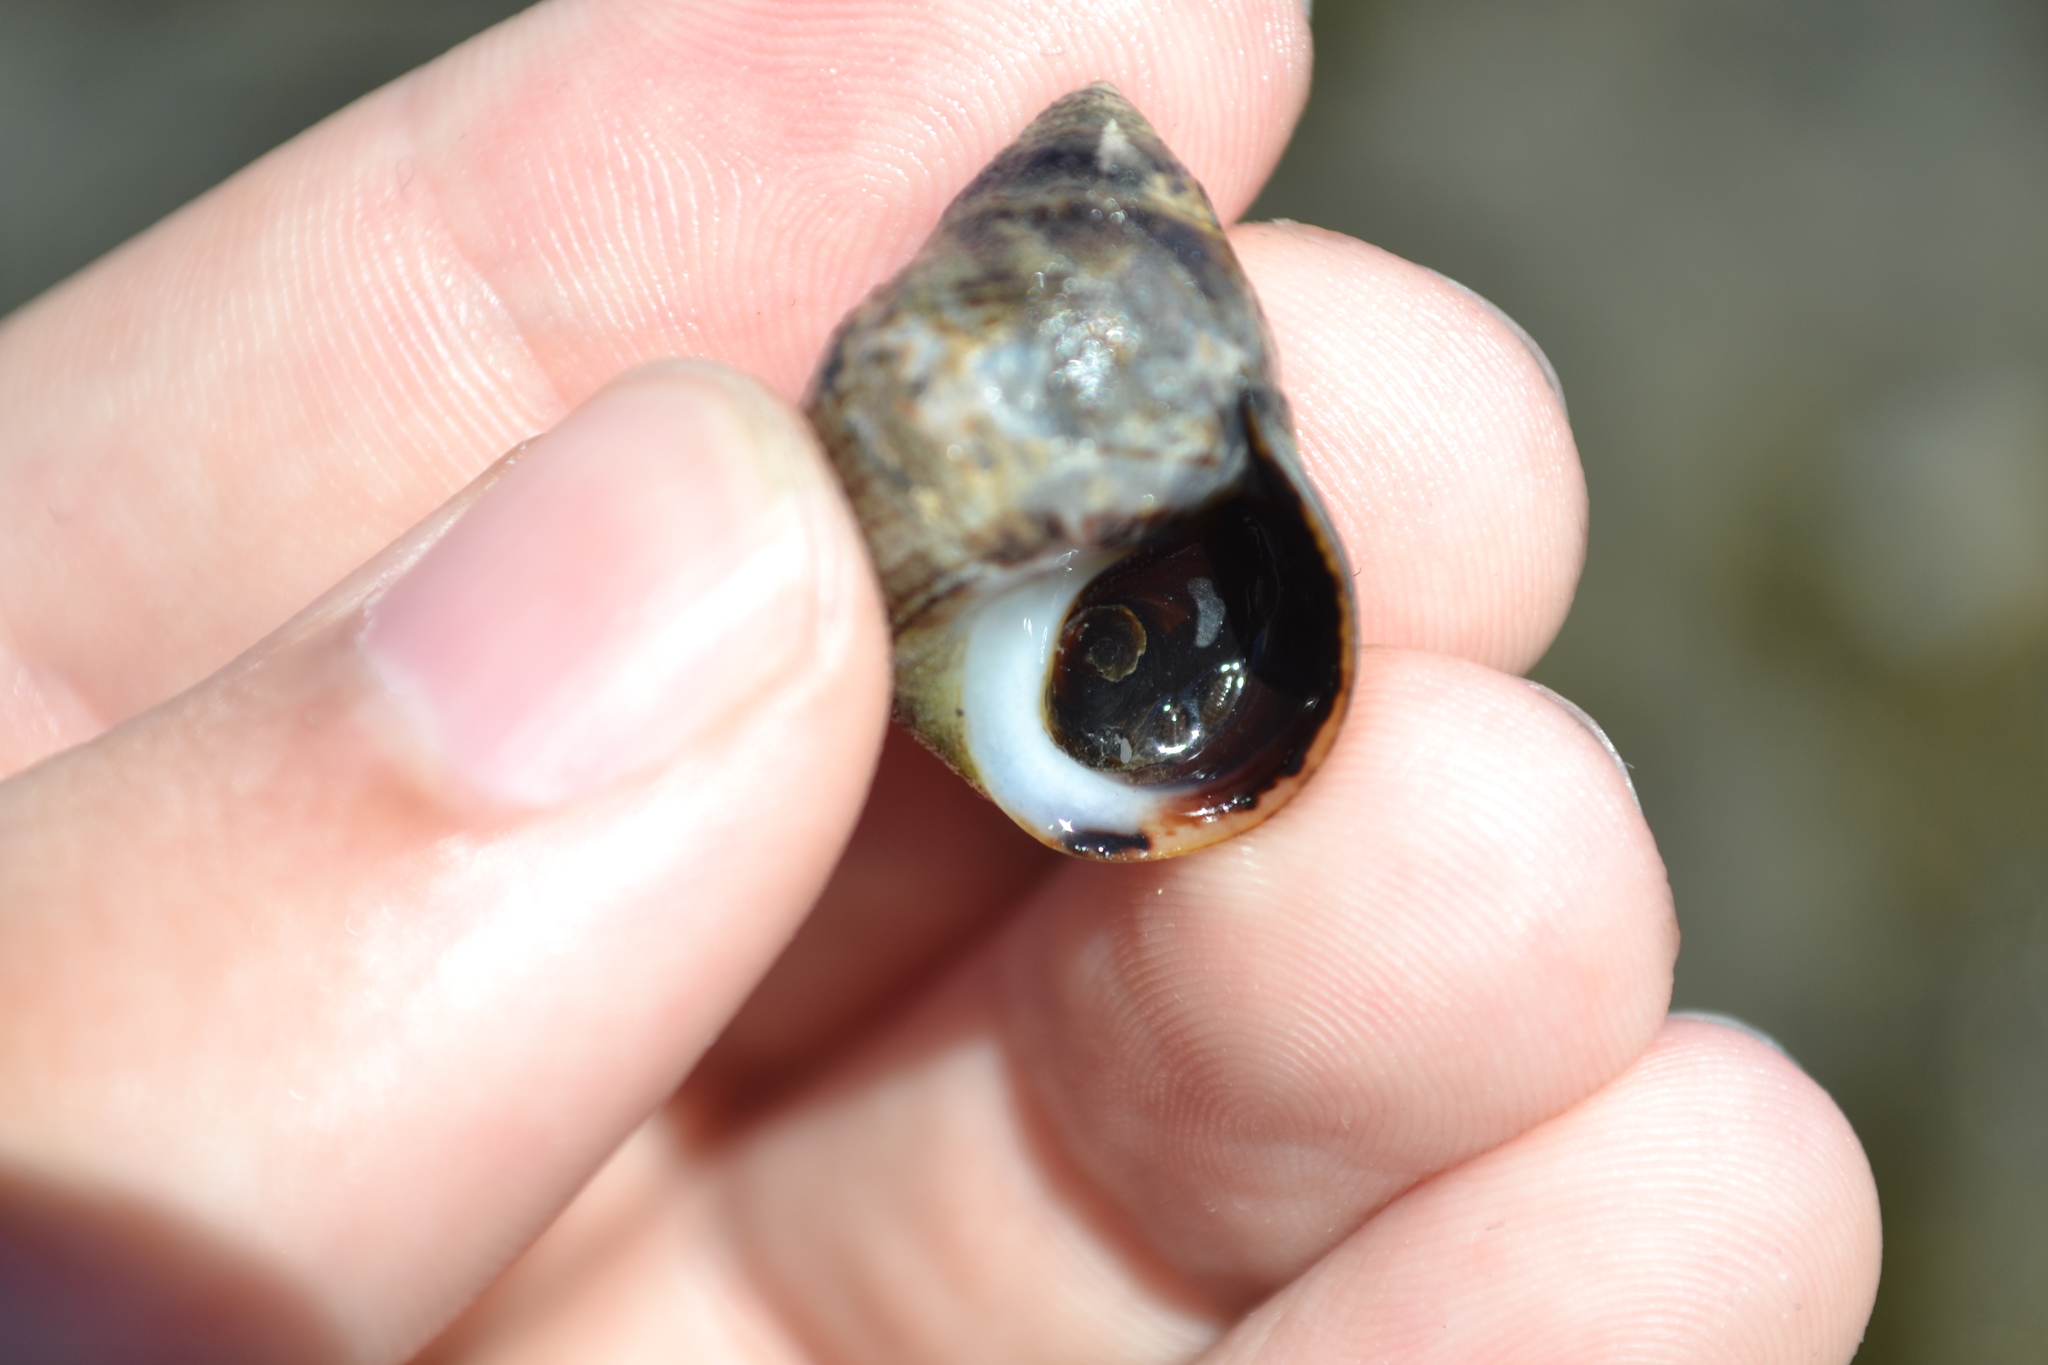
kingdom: Animalia
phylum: Mollusca
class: Gastropoda
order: Littorinimorpha
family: Littorinidae
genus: Littorina
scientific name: Littorina littorea
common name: Common periwinkle
